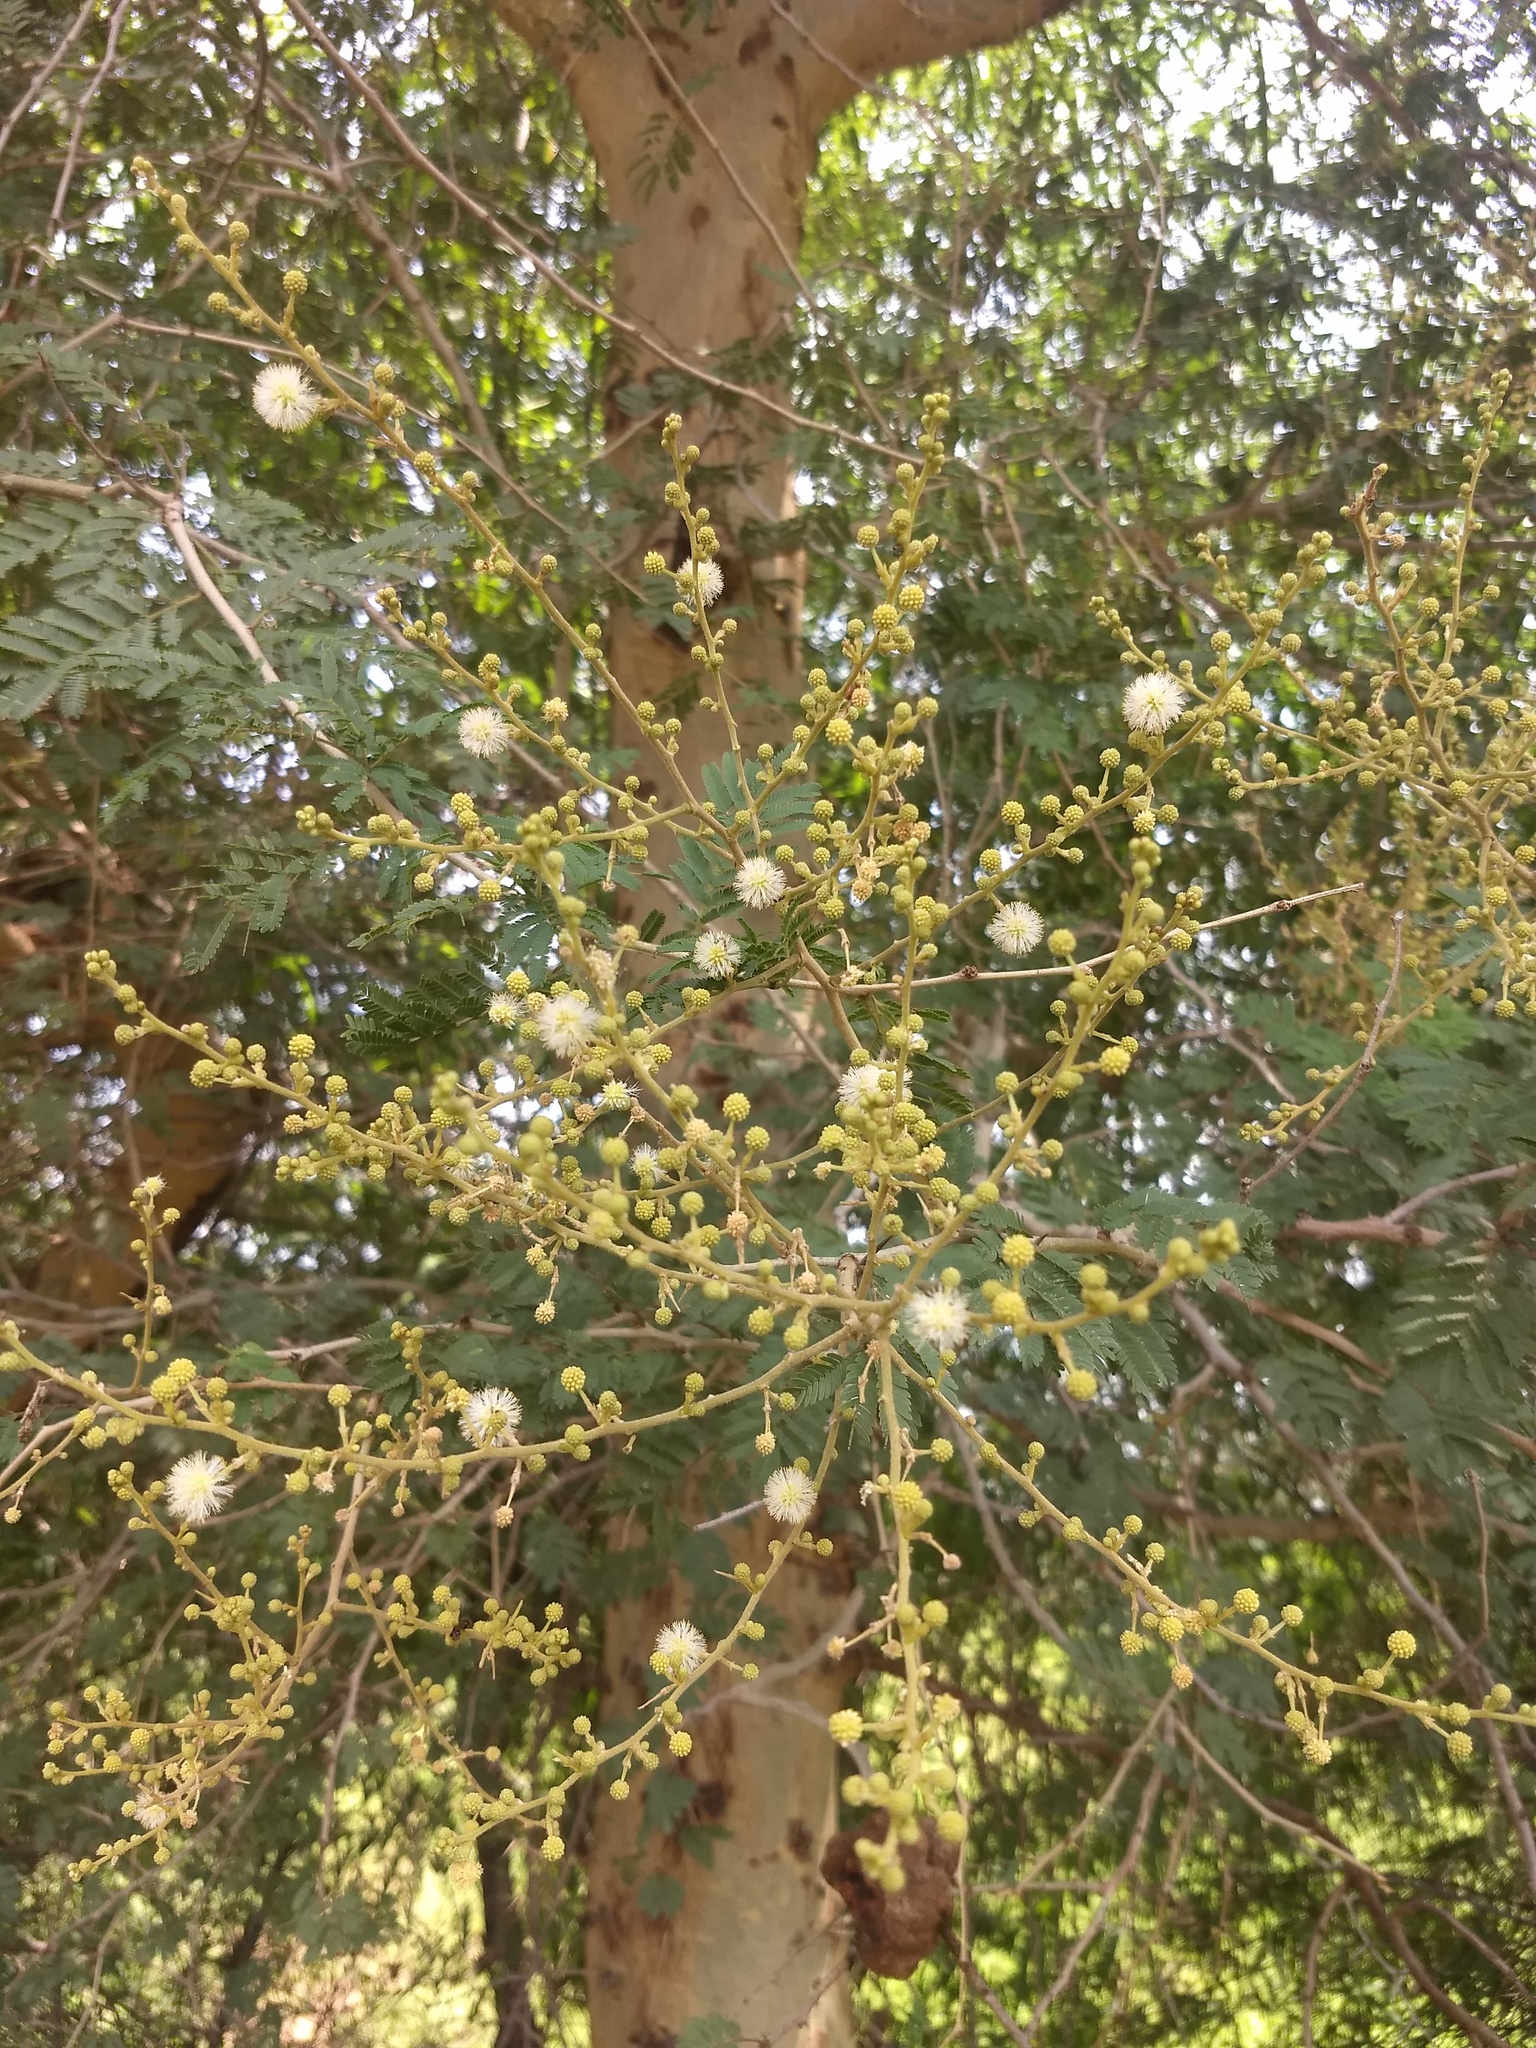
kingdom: Plantae
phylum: Tracheophyta
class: Magnoliopsida
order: Fabales
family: Fabaceae
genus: Vachellia
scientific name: Vachellia leucophloea
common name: Distiller's acacia
